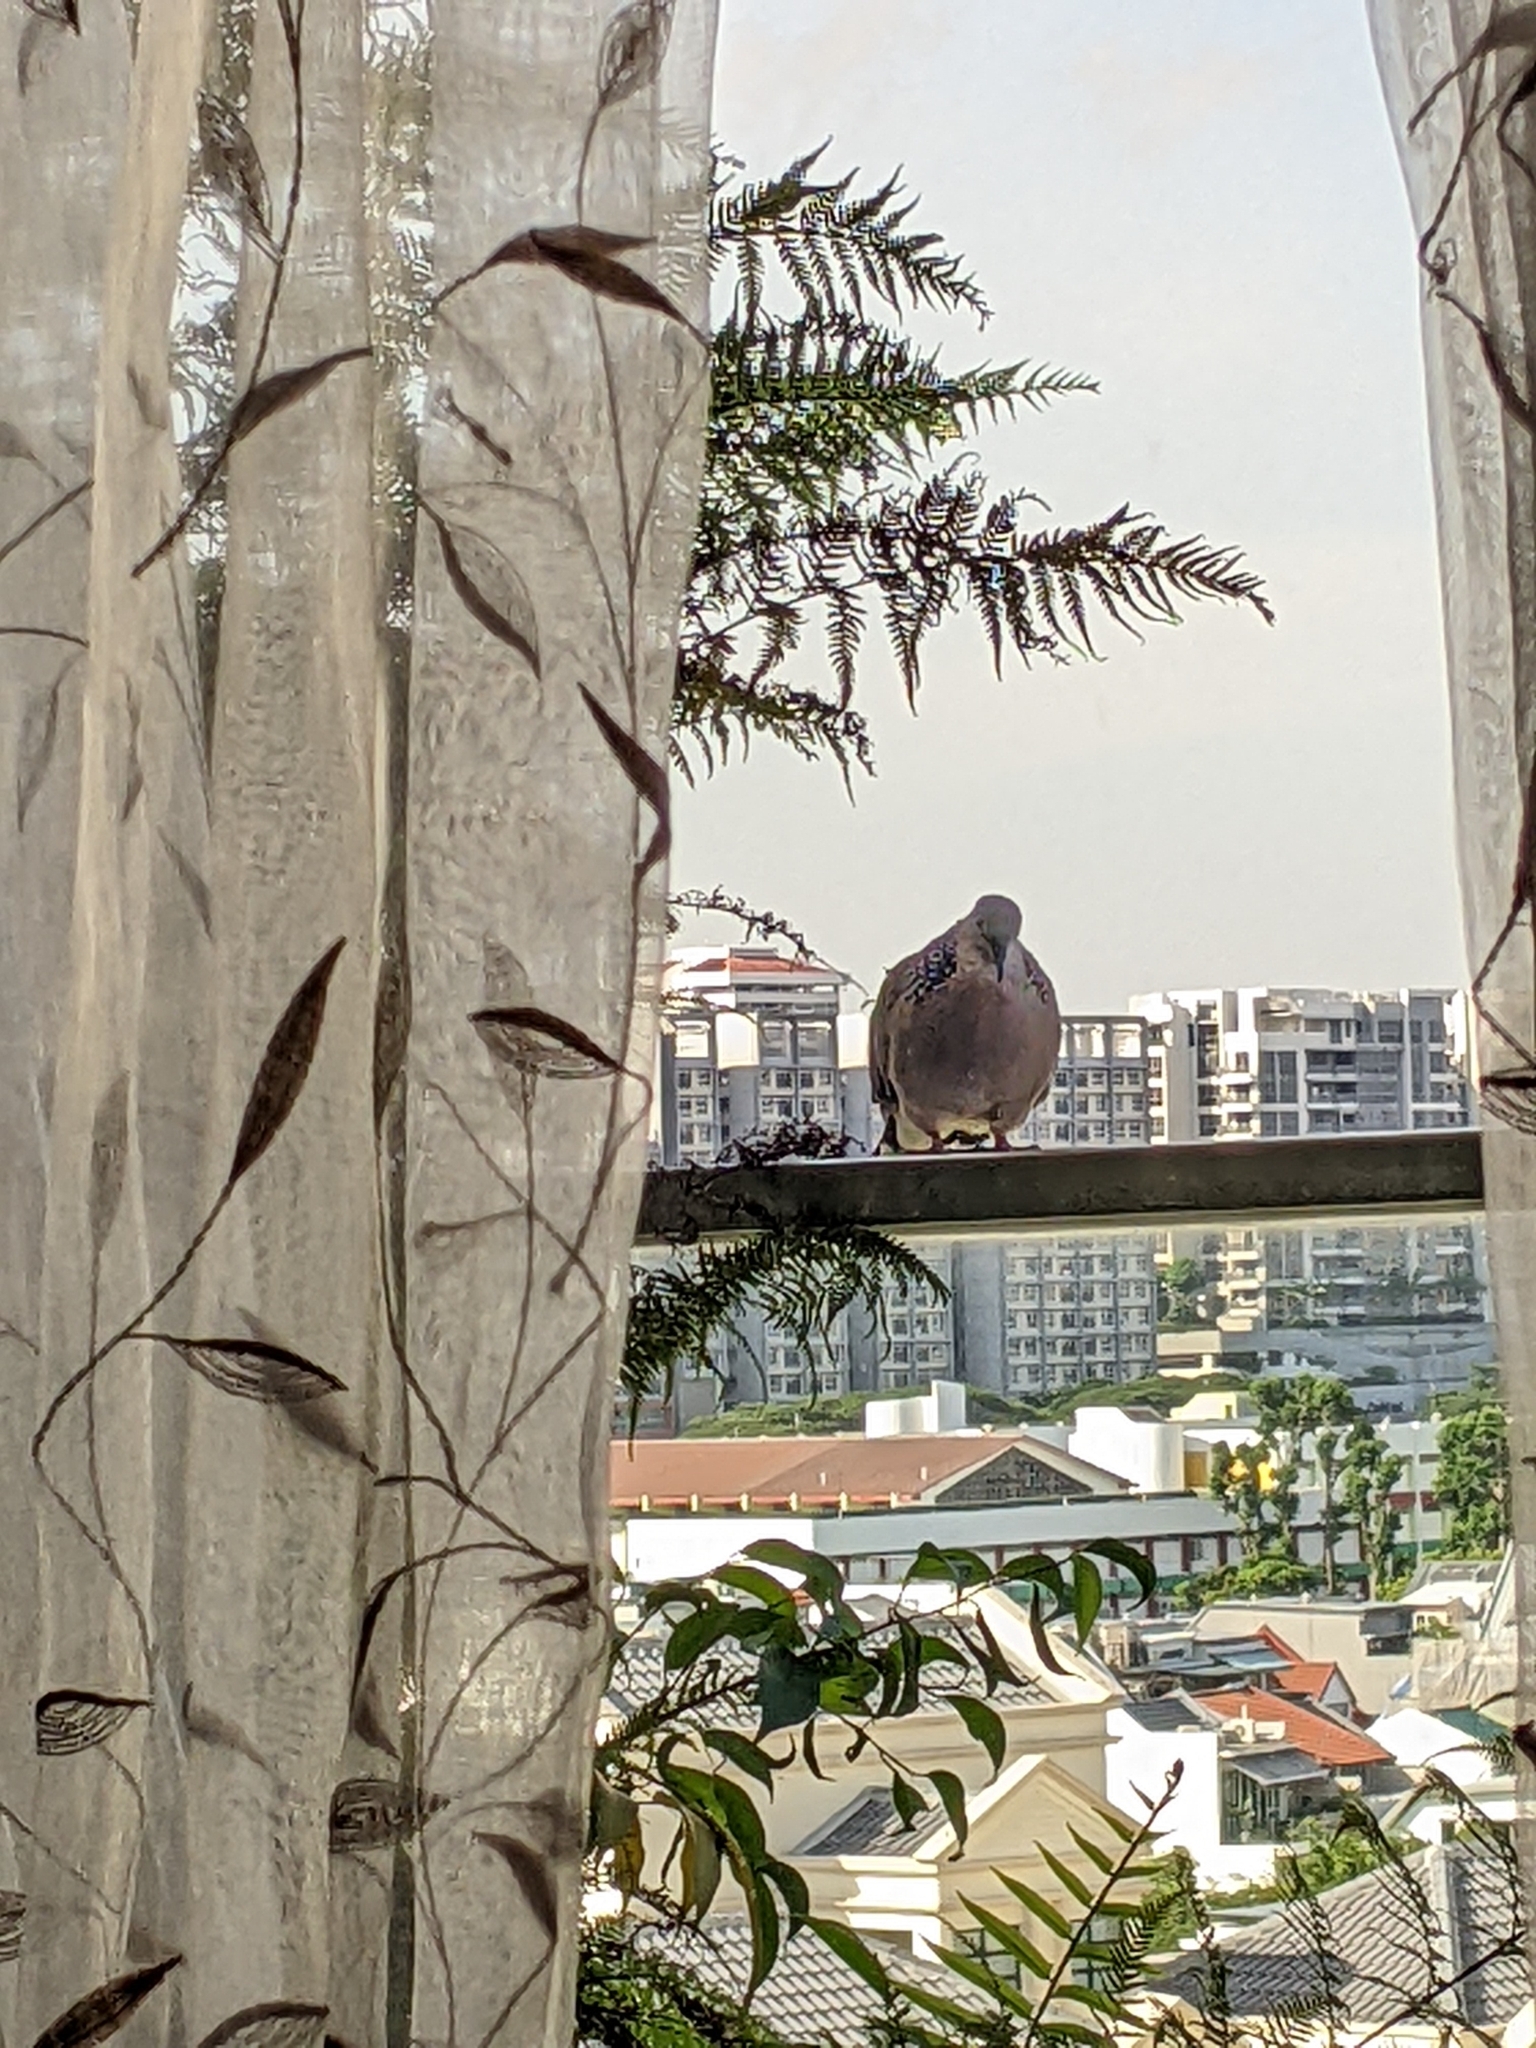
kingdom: Animalia
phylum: Chordata
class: Aves
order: Columbiformes
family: Columbidae
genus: Spilopelia
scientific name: Spilopelia chinensis
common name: Spotted dove
